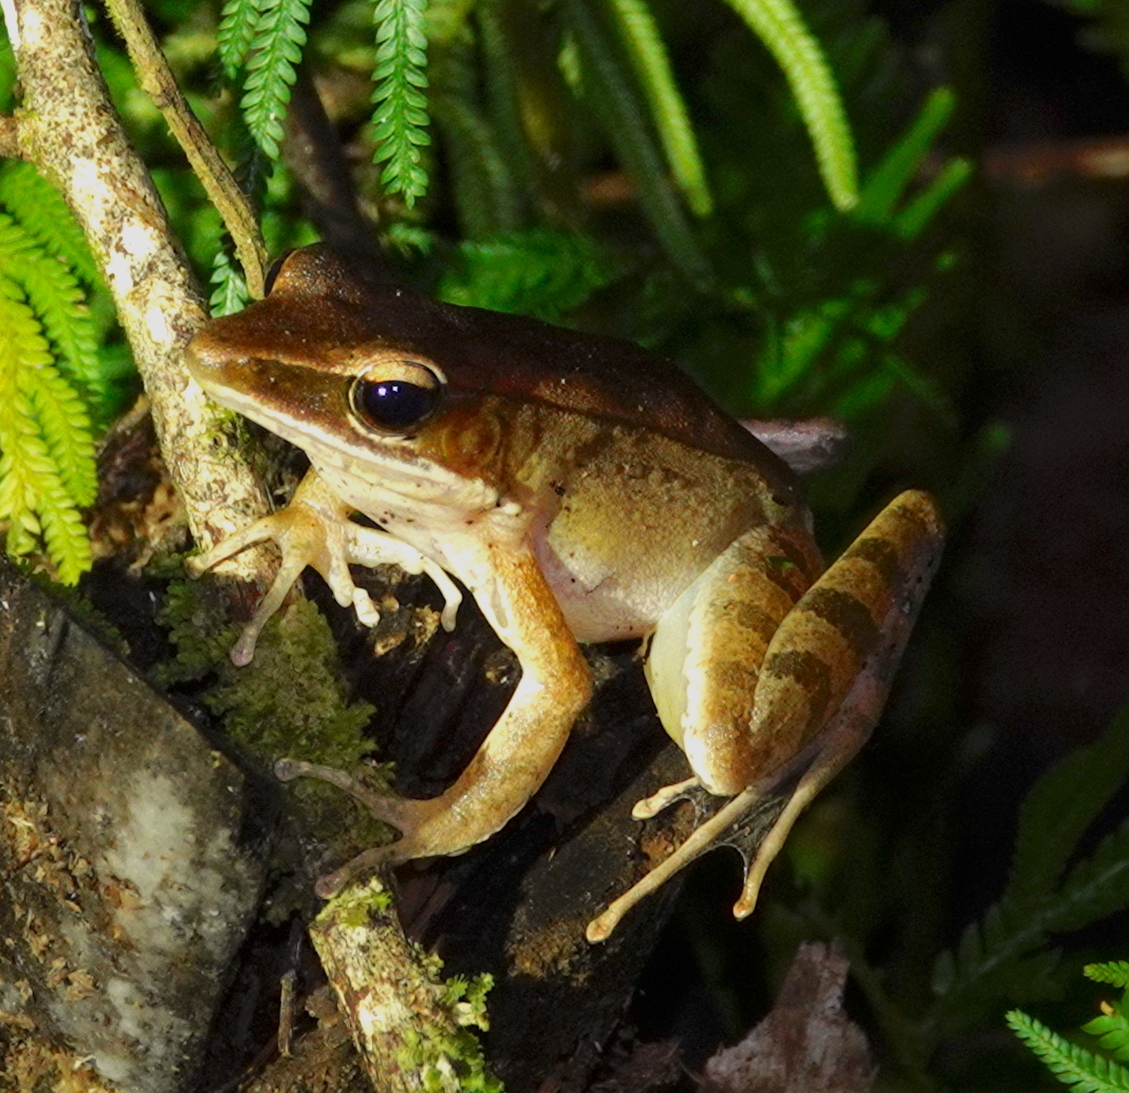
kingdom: Animalia
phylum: Chordata
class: Amphibia
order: Anura
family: Ranidae
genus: Papurana
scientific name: Papurana moluccana
